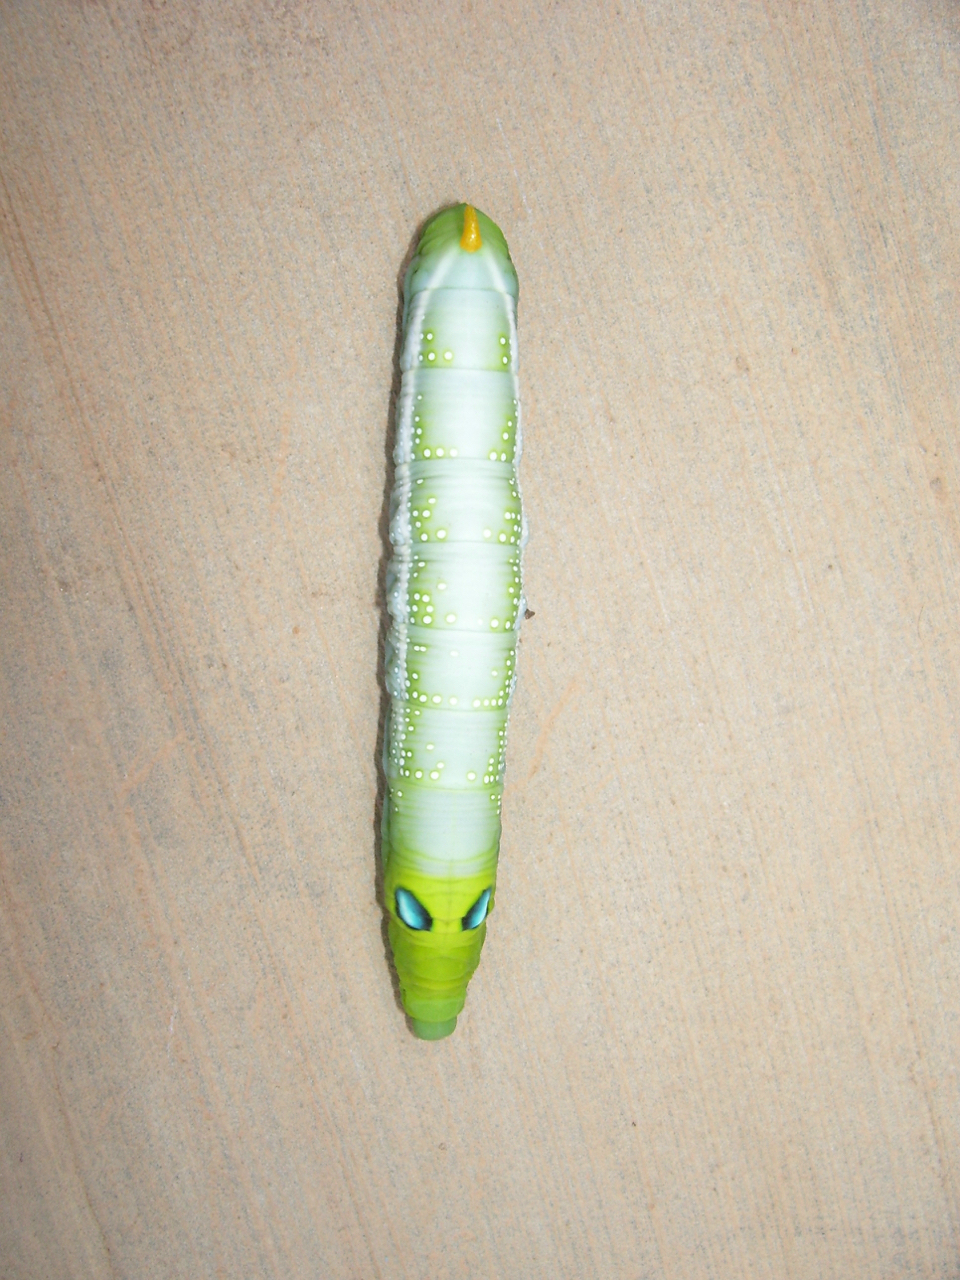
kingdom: Animalia
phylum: Arthropoda
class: Insecta
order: Lepidoptera
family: Sphingidae
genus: Daphnis
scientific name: Daphnis nerii
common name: Oleander hawk-moth
